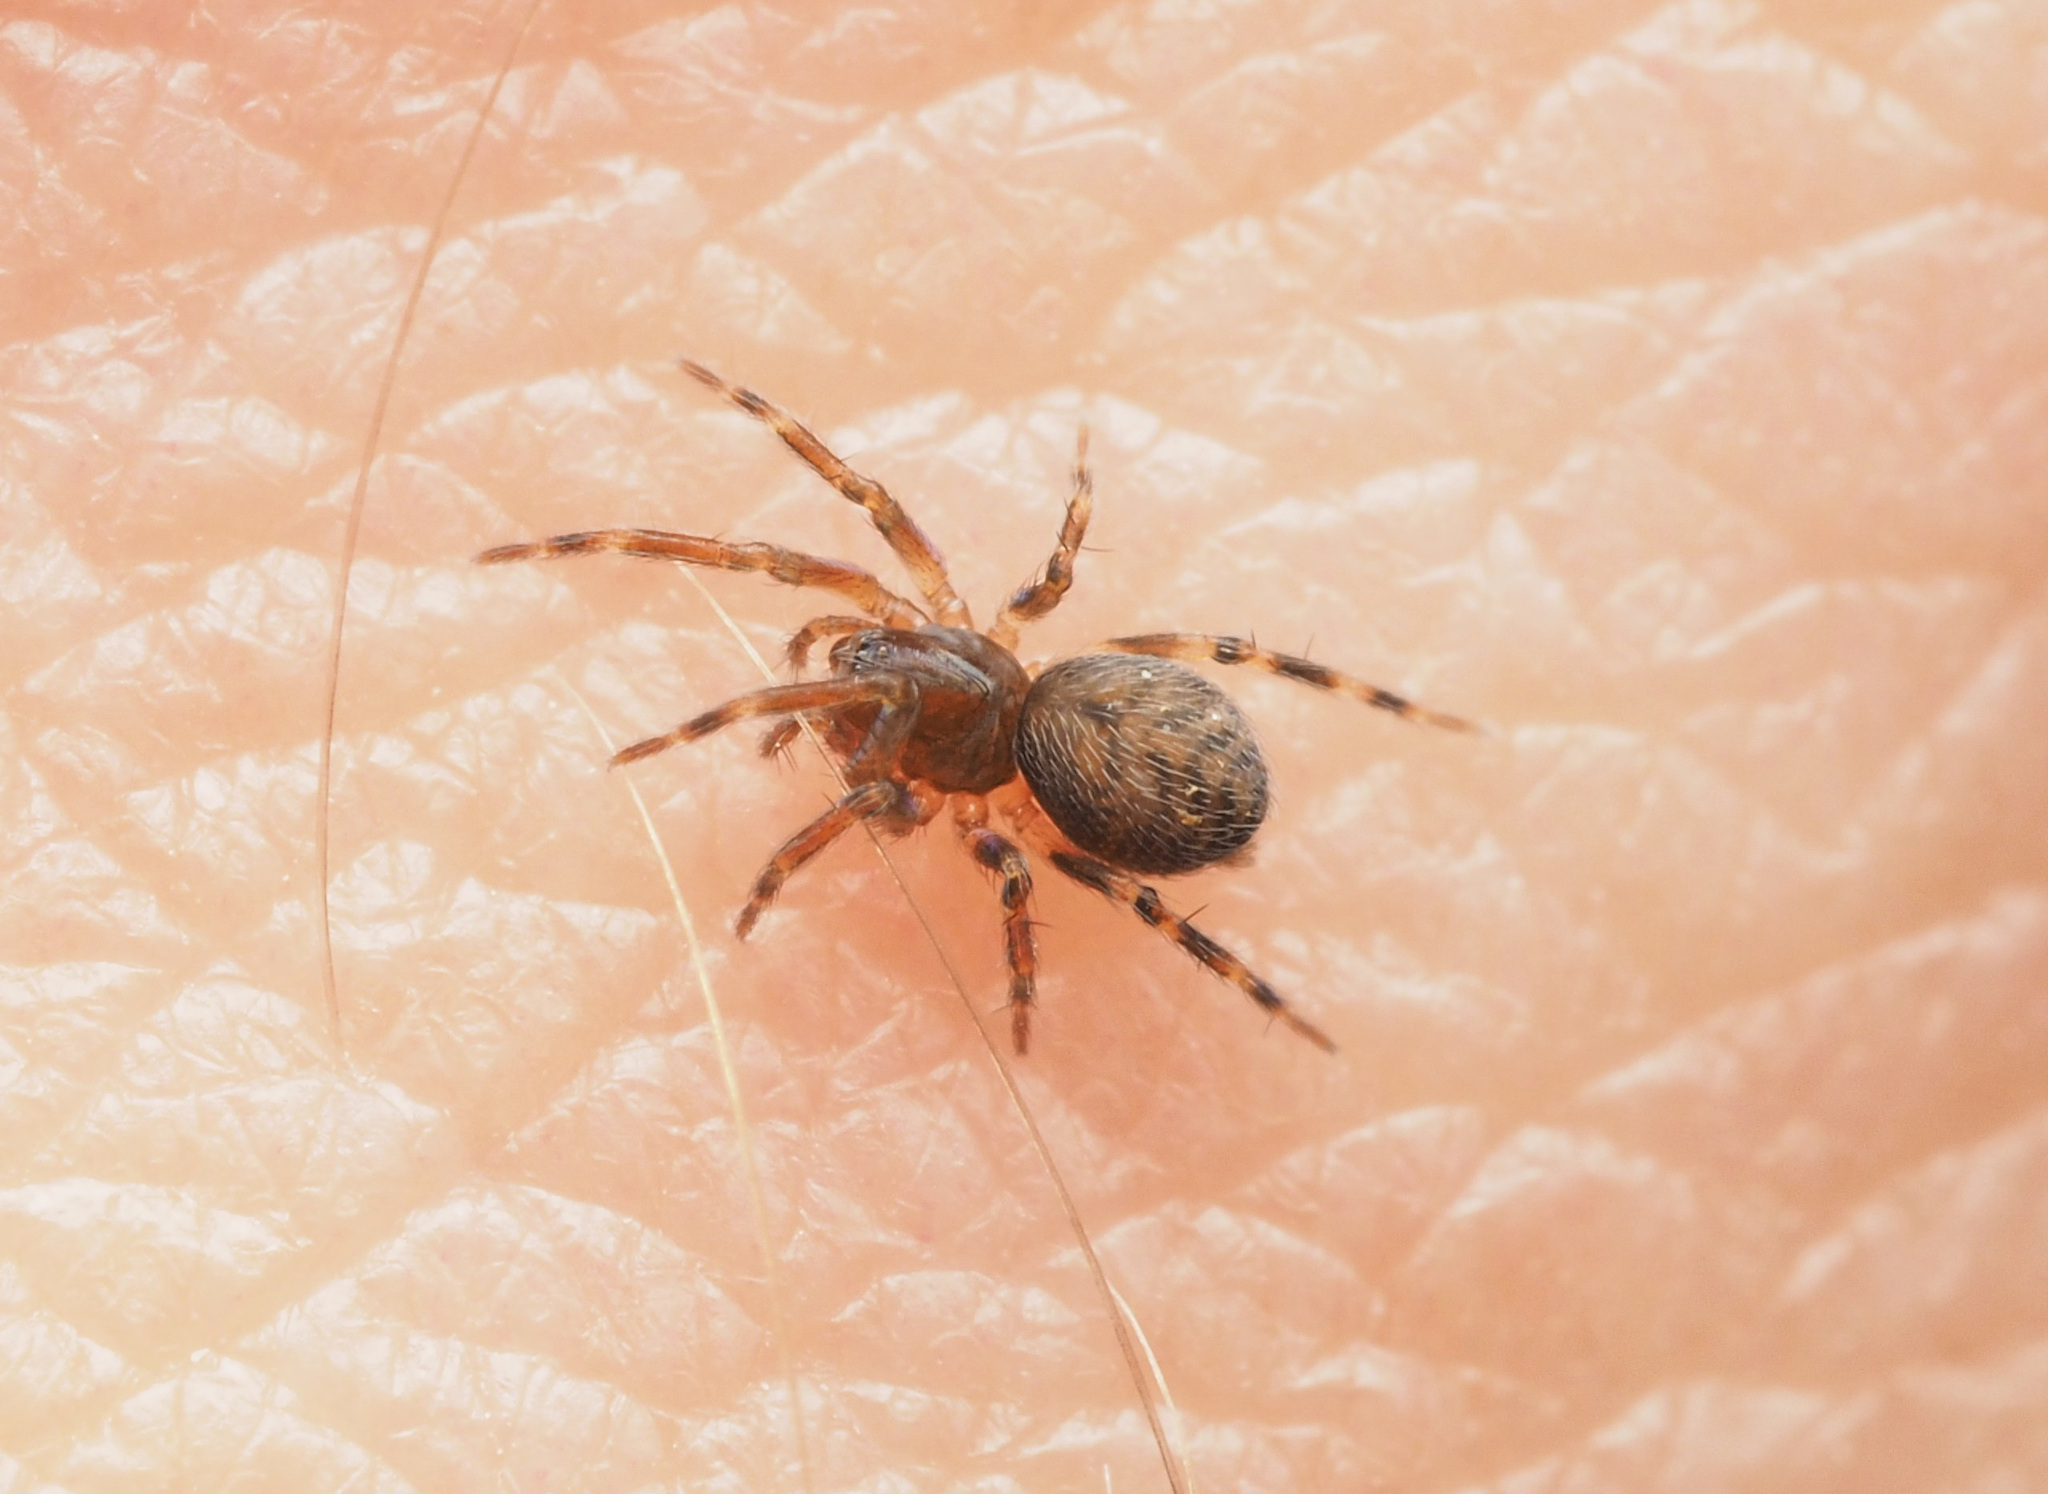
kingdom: Animalia
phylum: Arthropoda
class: Arachnida
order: Araneae
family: Hahniidae
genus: Alistra
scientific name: Alistra
